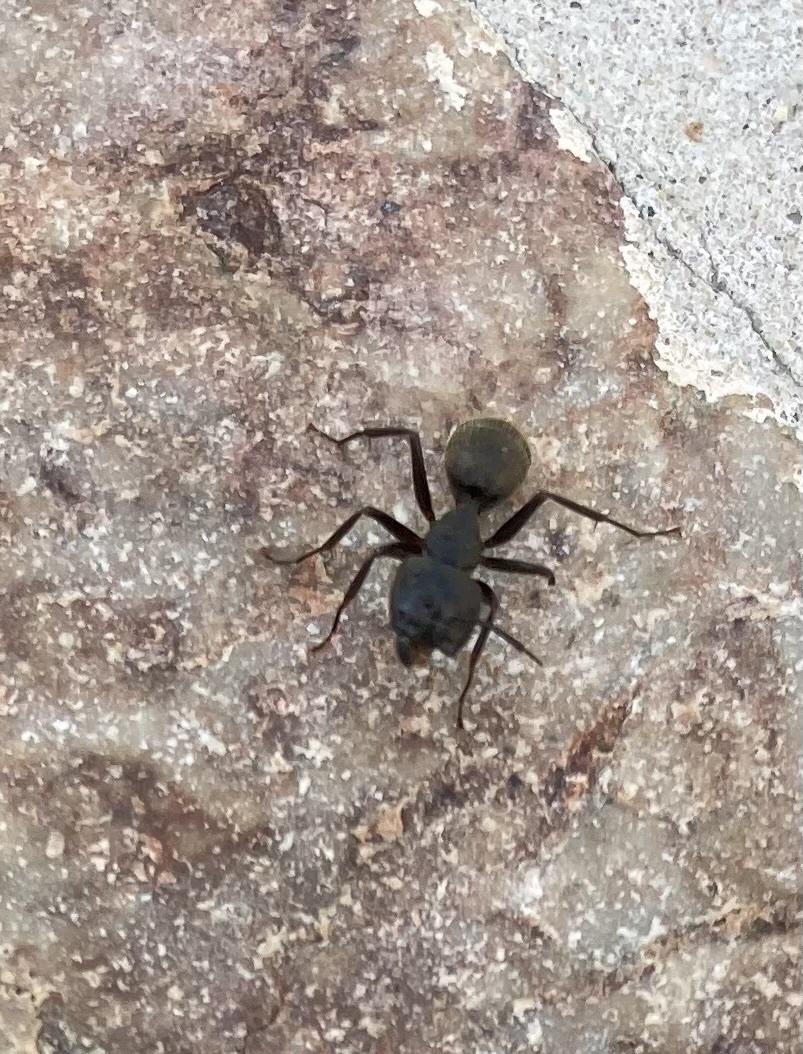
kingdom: Animalia
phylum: Arthropoda
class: Insecta
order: Hymenoptera
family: Formicidae
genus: Camponotus
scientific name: Camponotus pennsylvanicus
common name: Black carpenter ant
